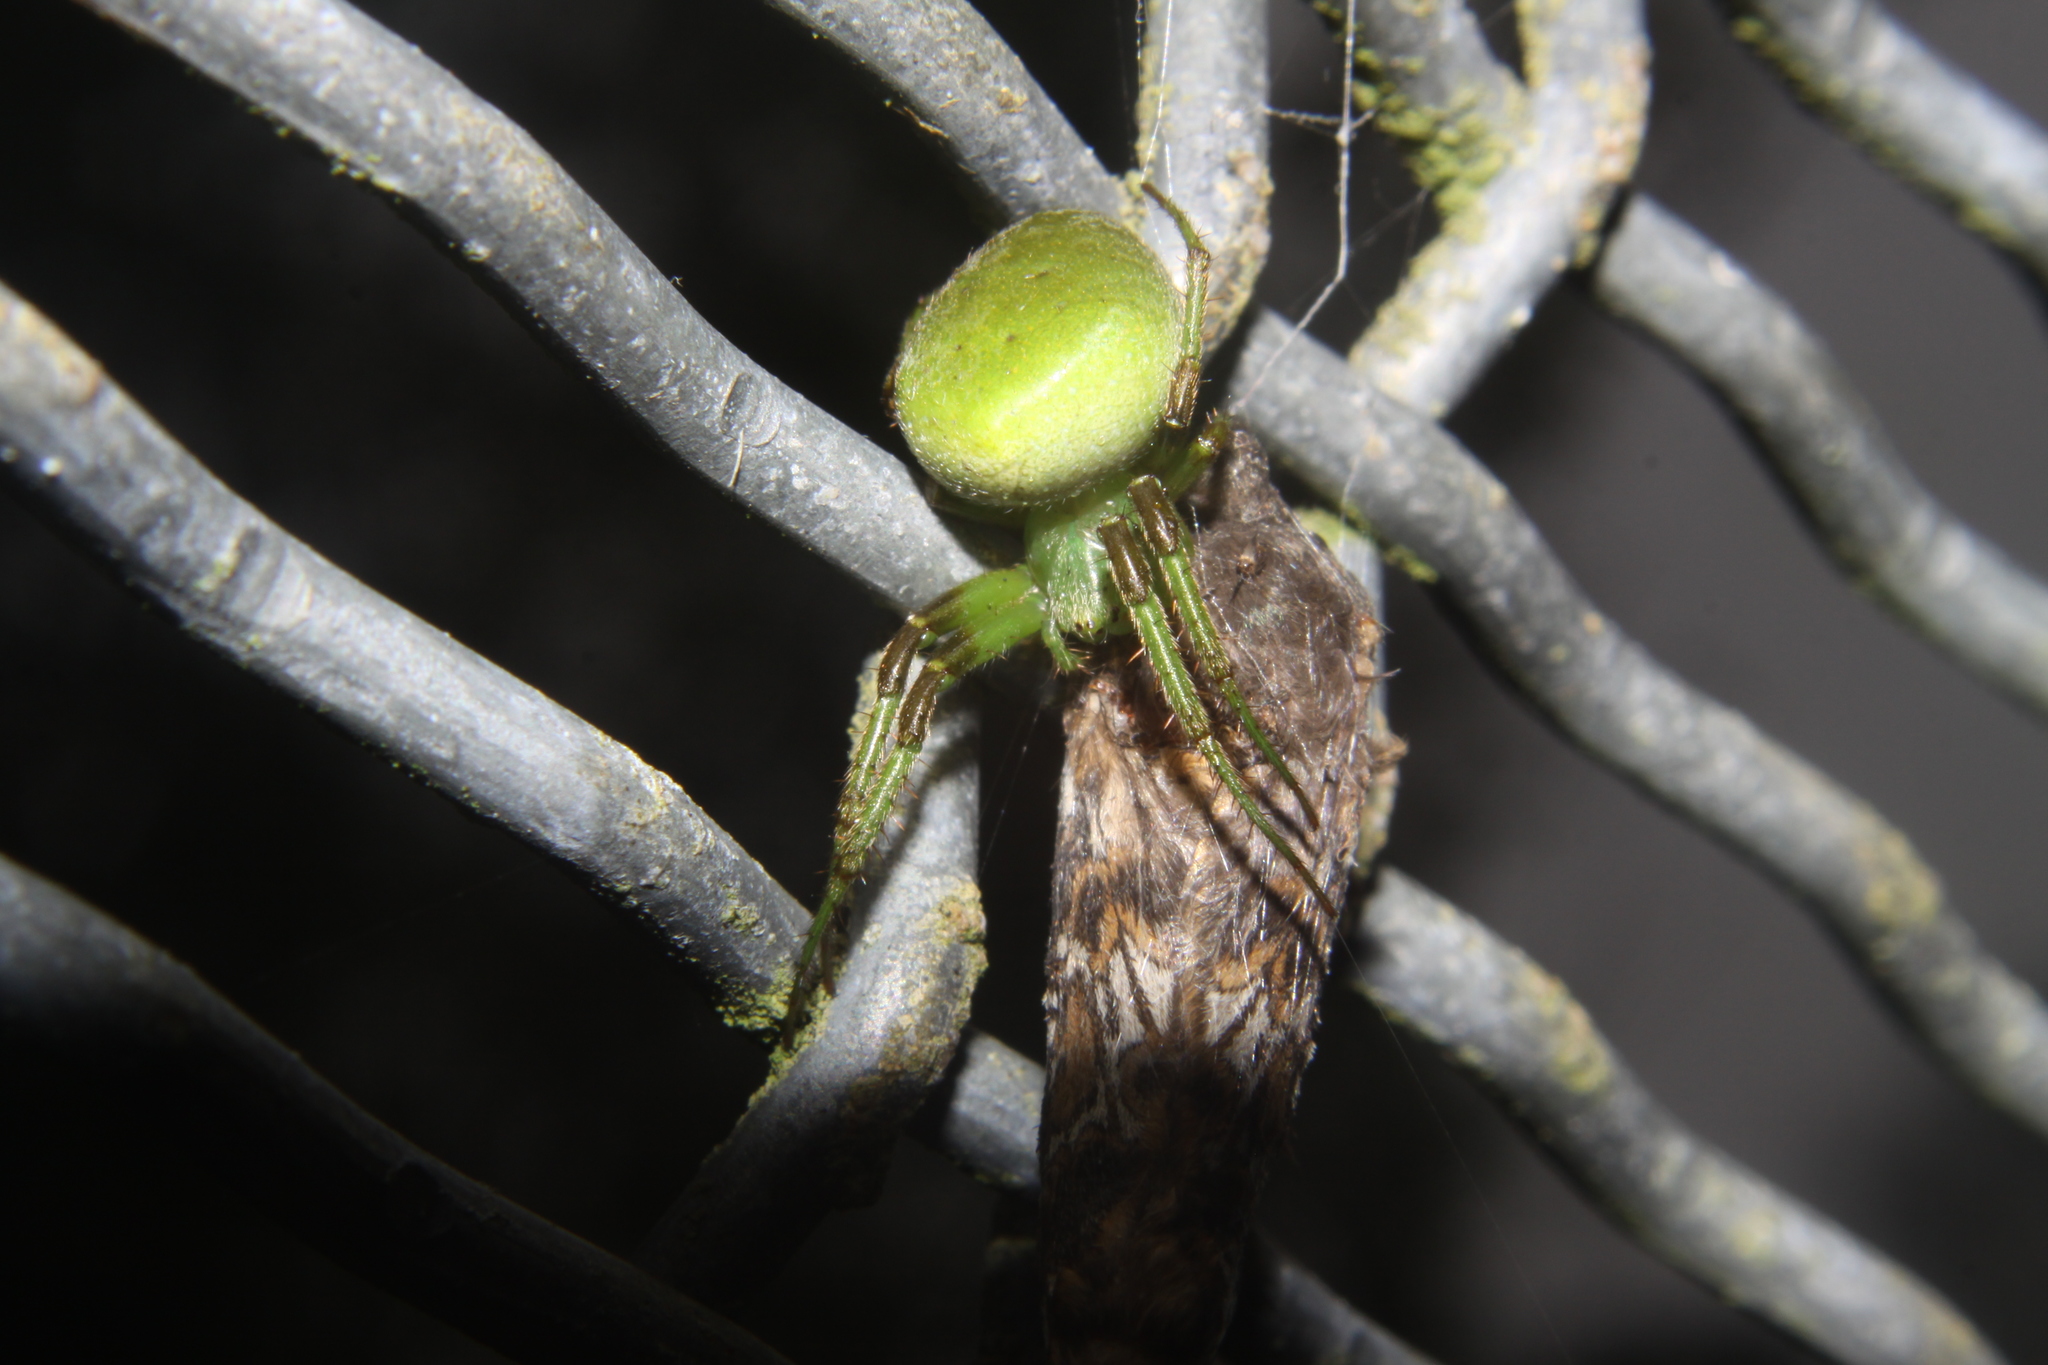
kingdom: Animalia
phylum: Arthropoda
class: Arachnida
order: Araneae
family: Araneidae
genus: Colaranea
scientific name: Colaranea viriditas
